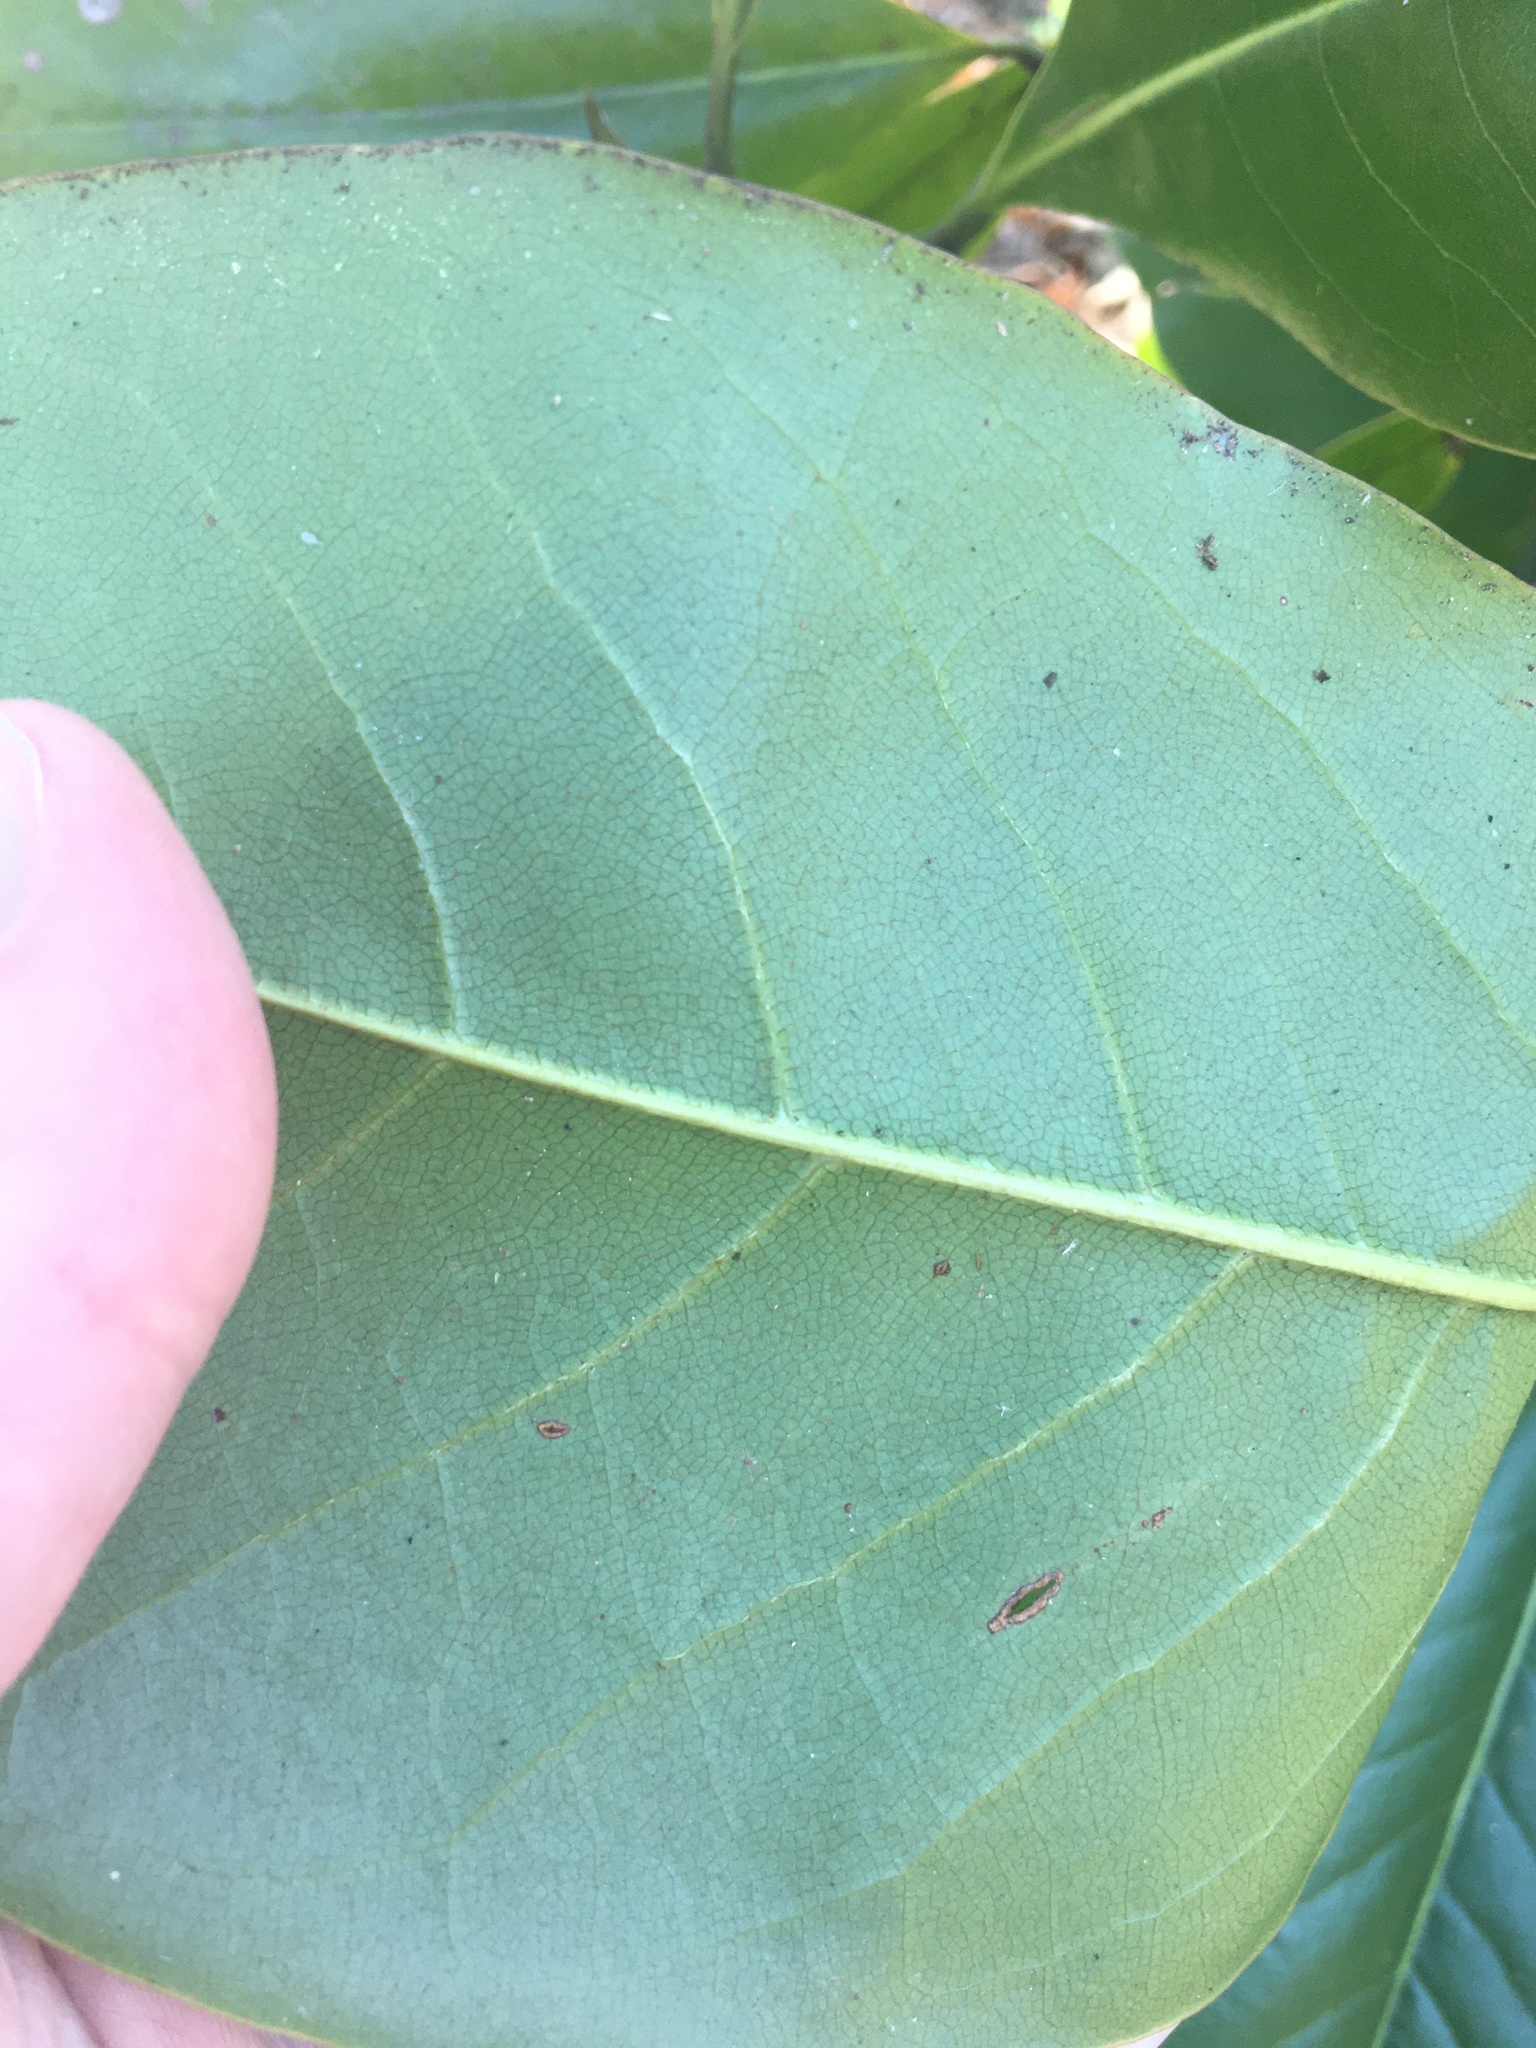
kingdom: Plantae
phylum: Tracheophyta
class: Magnoliopsida
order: Magnoliales
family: Magnoliaceae
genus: Magnolia
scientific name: Magnolia grandiflora
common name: Southern magnolia
